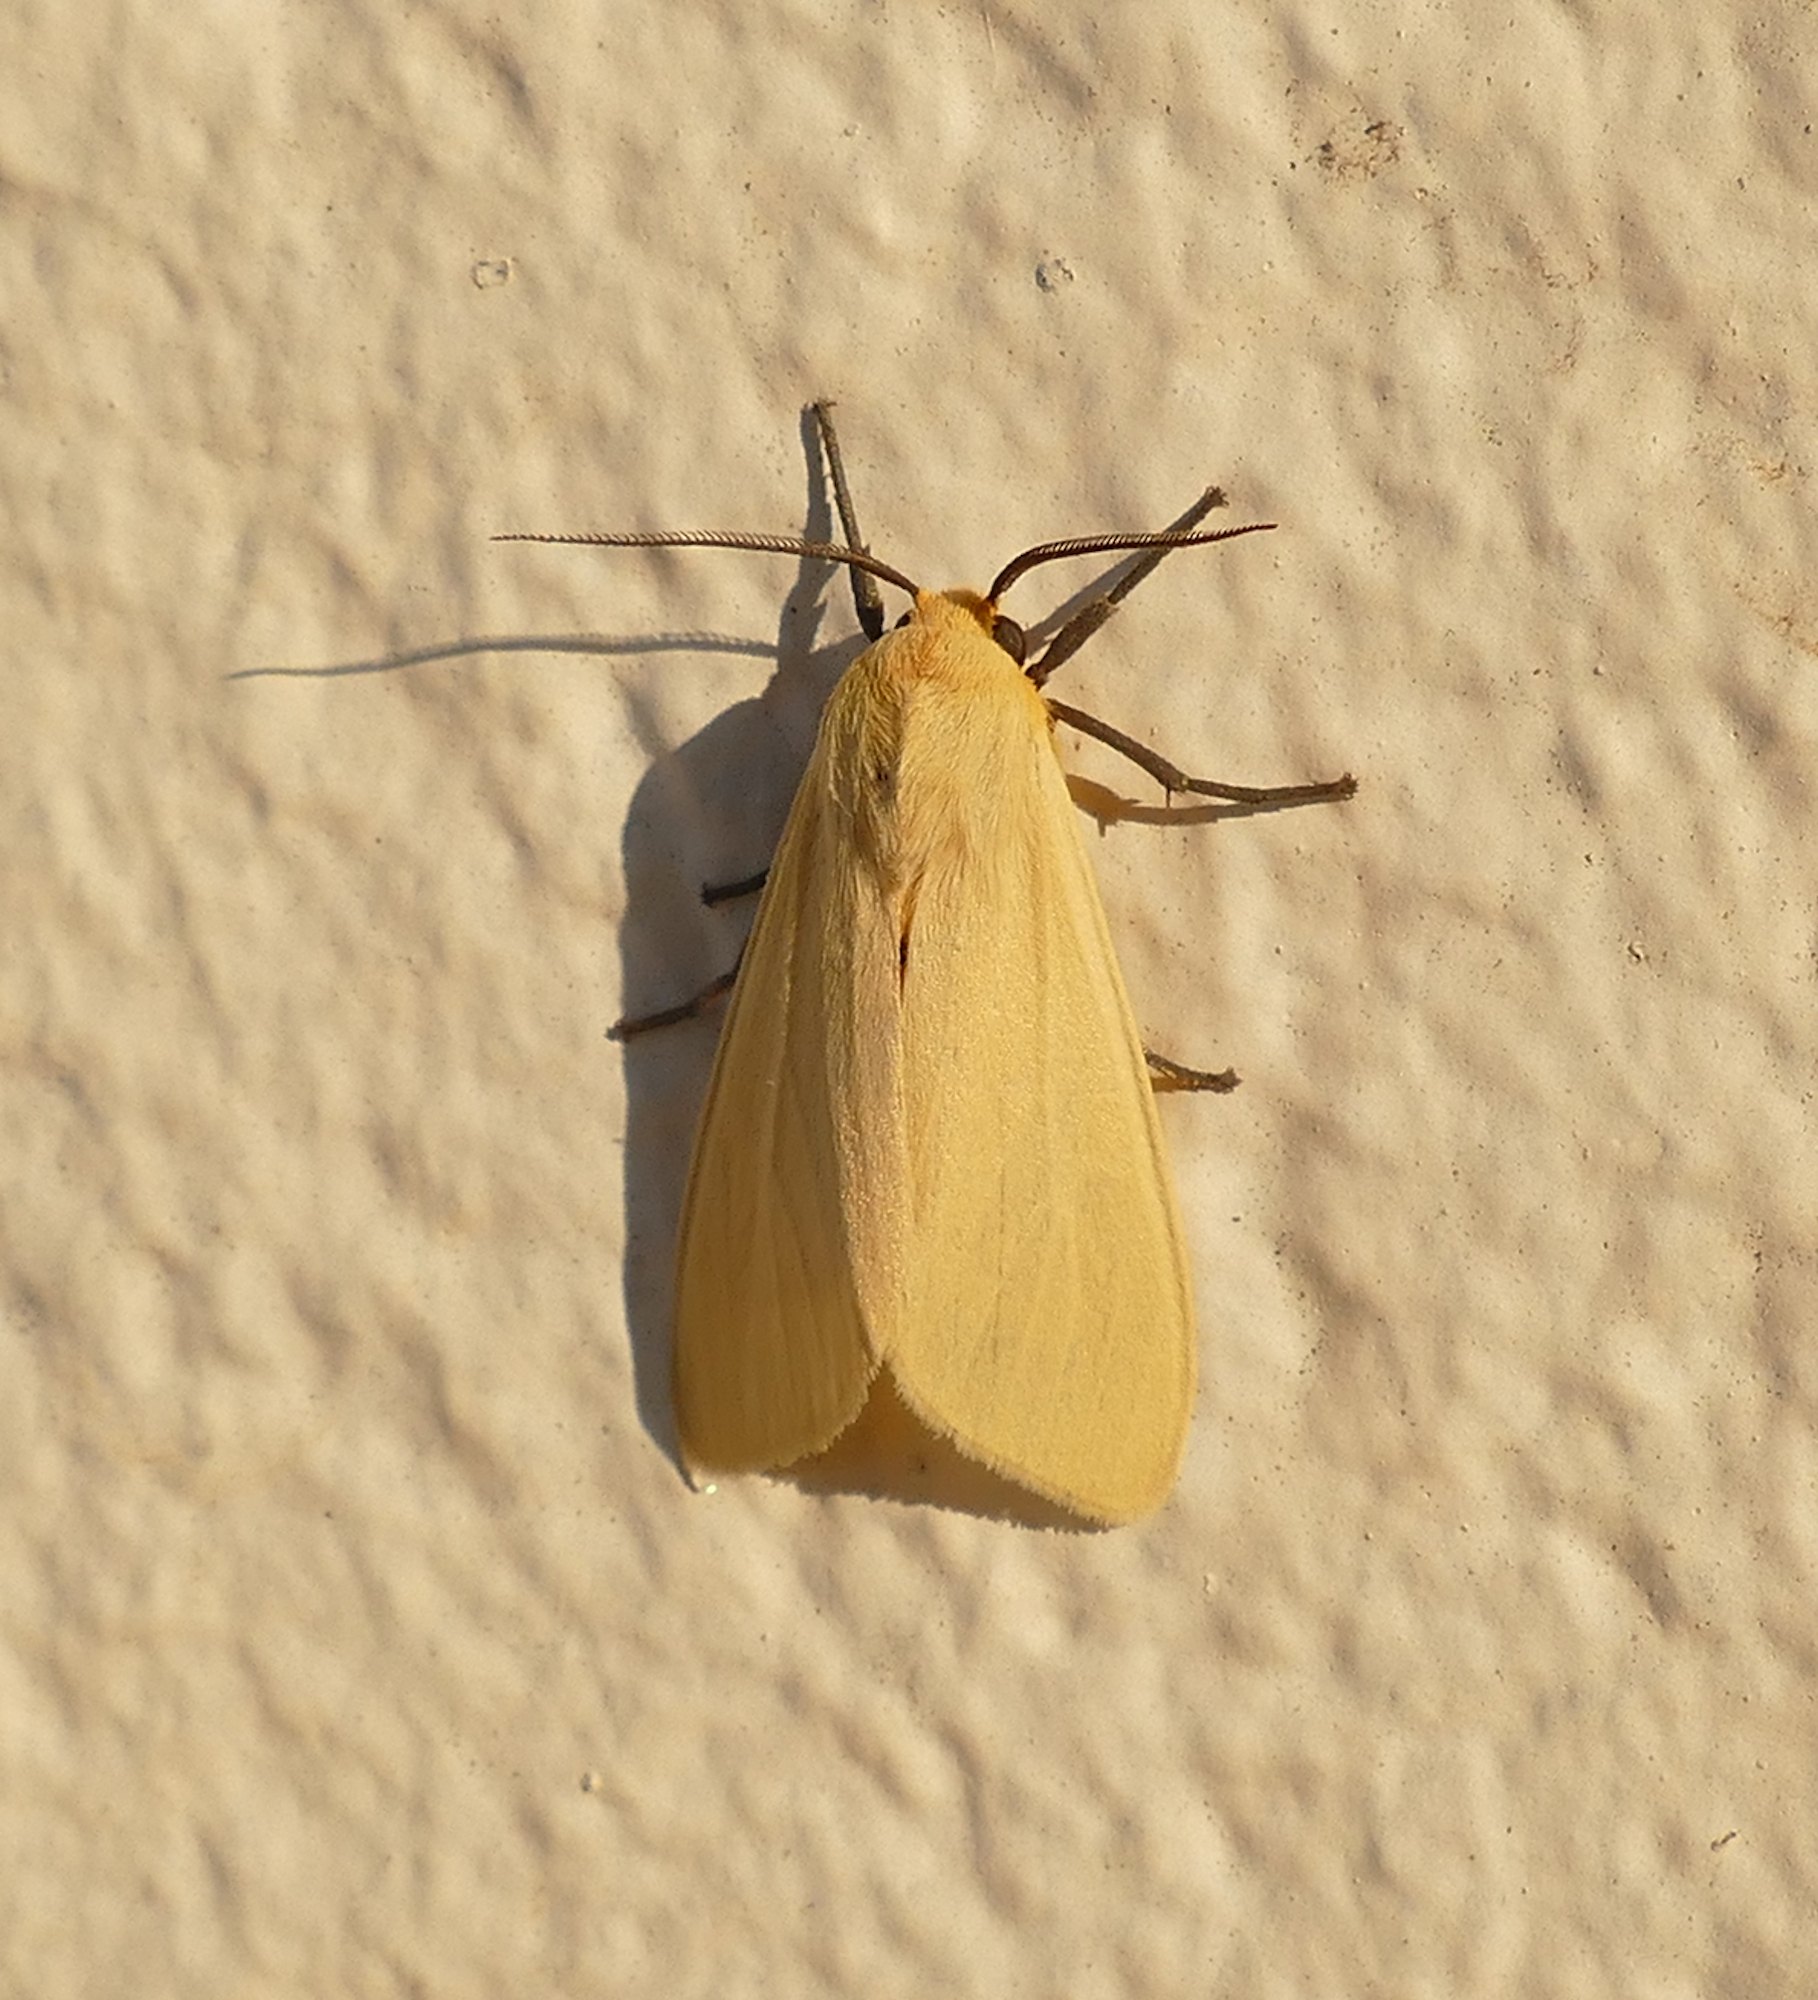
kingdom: Animalia
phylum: Arthropoda
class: Insecta
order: Lepidoptera
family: Erebidae
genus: Pareuchaetes
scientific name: Pareuchaetes insulata
